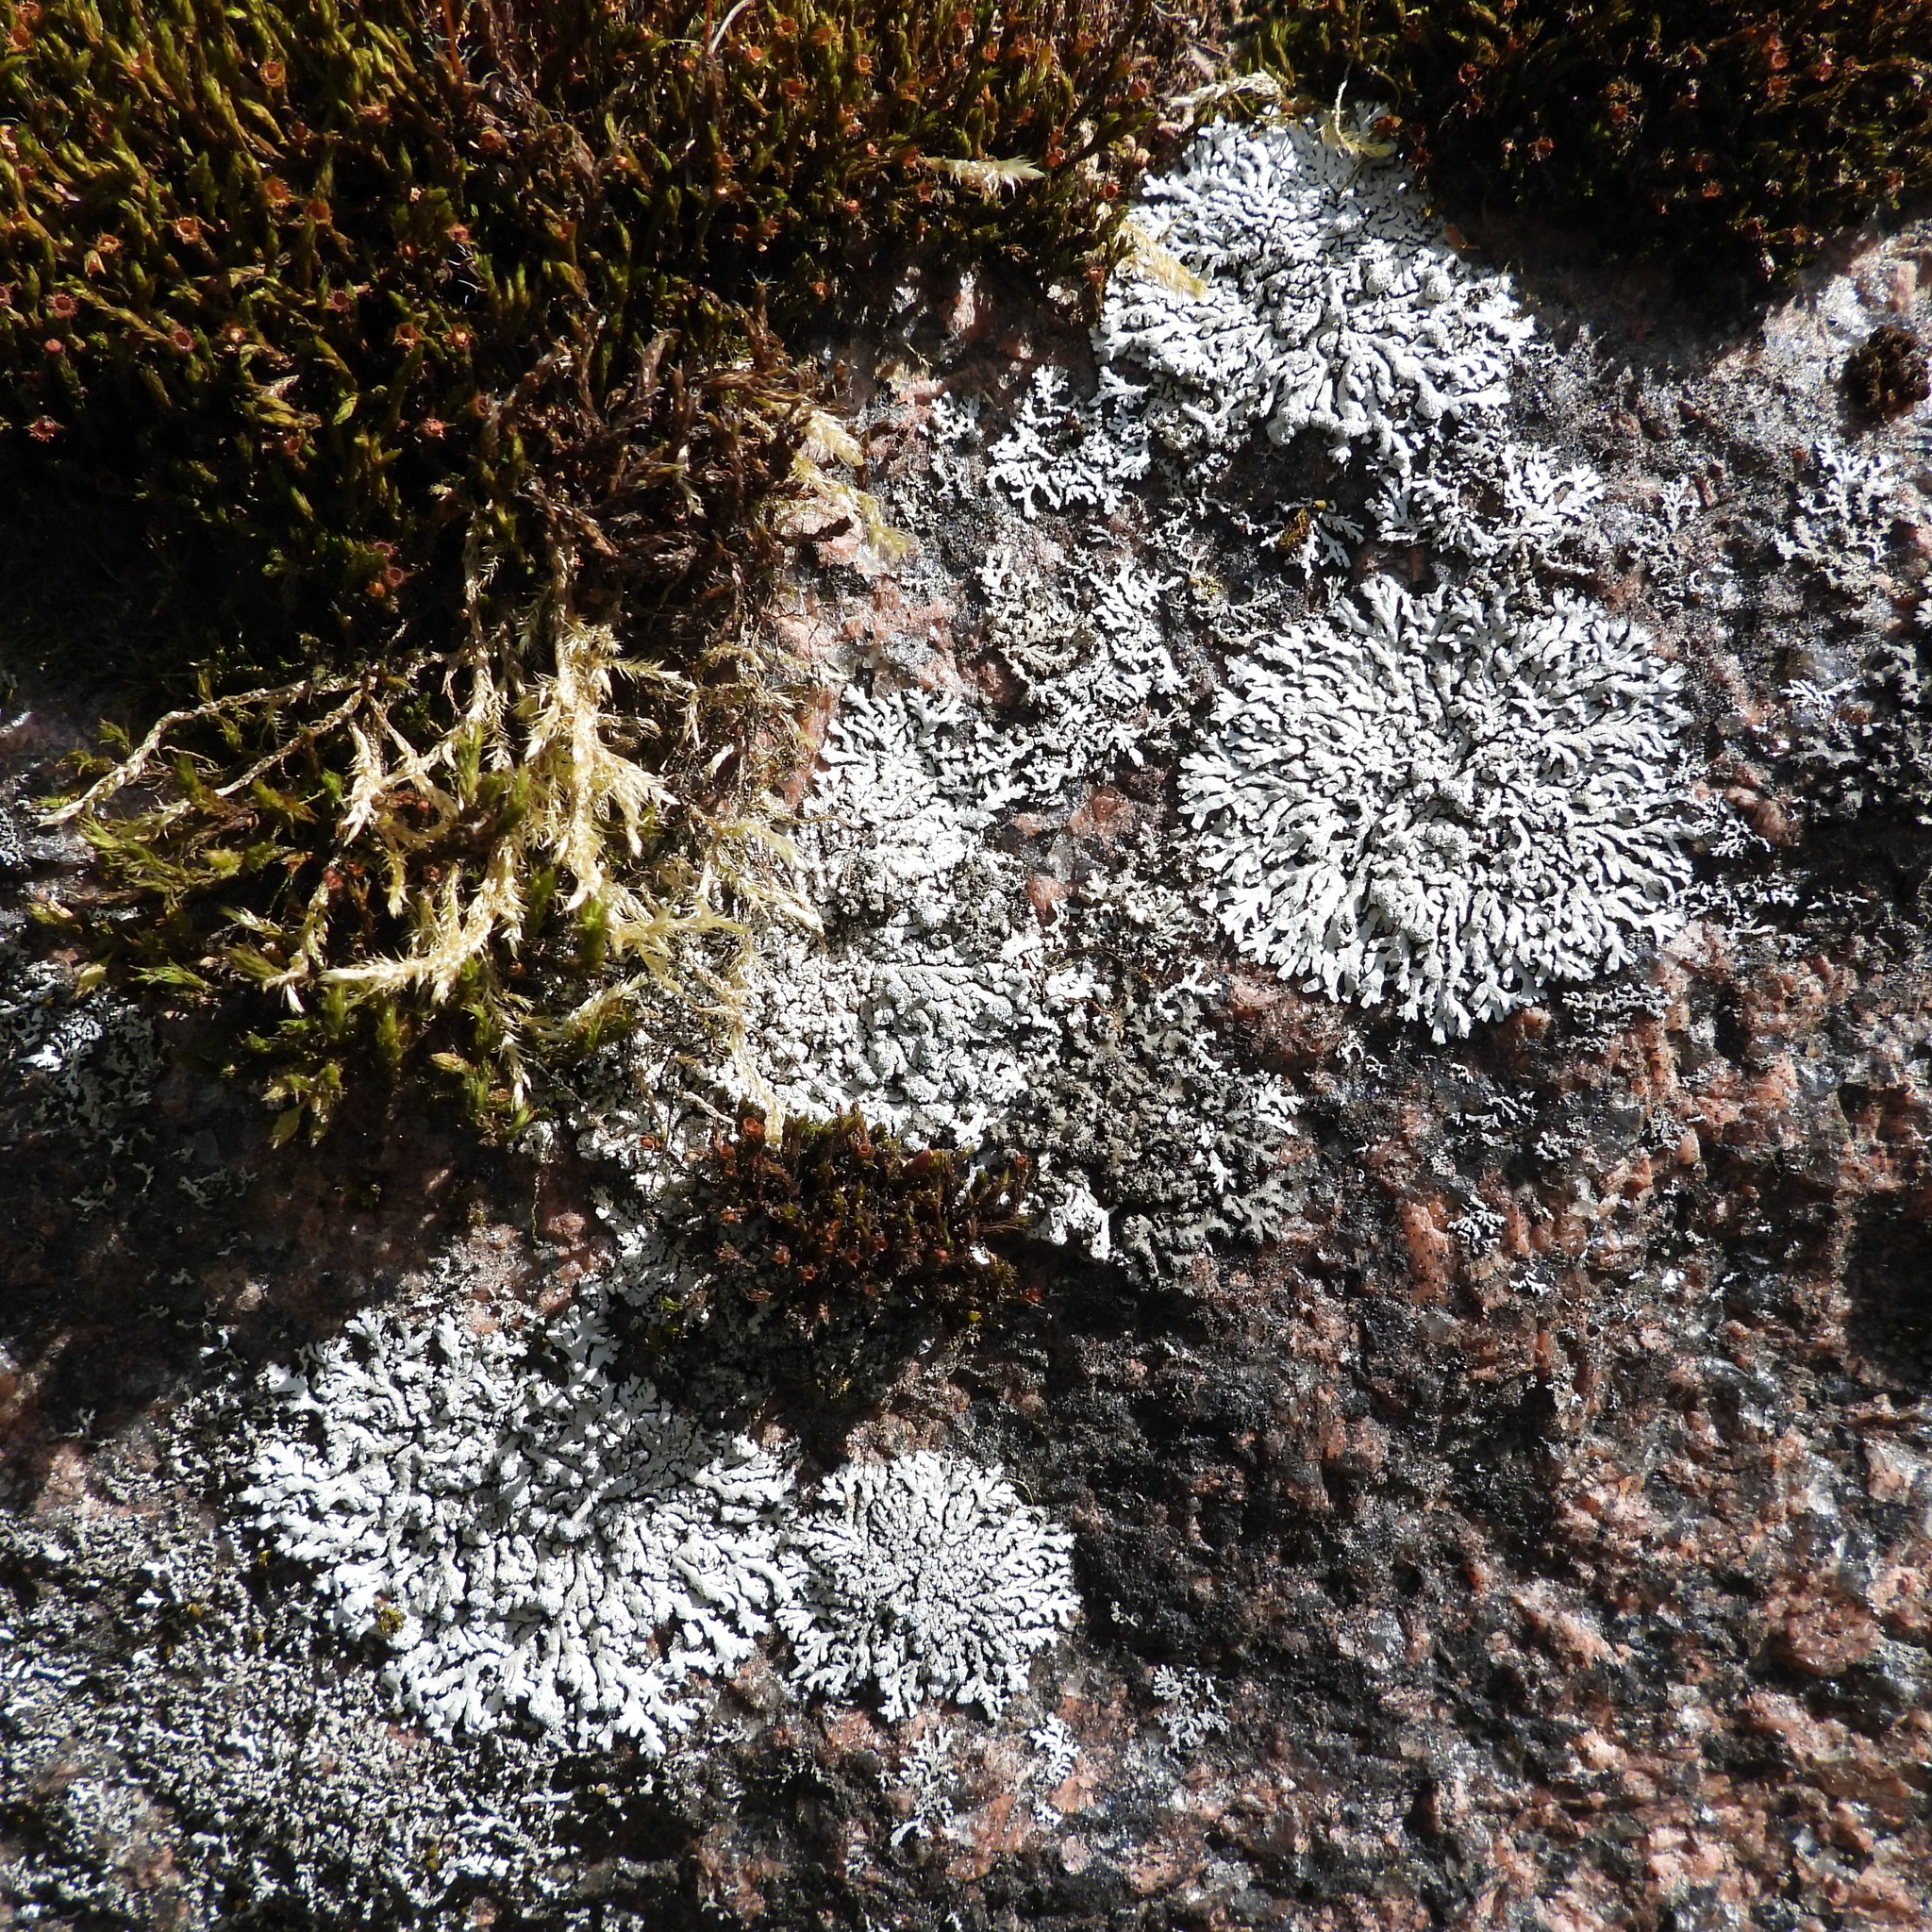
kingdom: Fungi
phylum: Ascomycota
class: Lecanoromycetes
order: Caliciales
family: Physciaceae
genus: Physcia
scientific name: Physcia caesia
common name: Blue-gray rosette lichen
